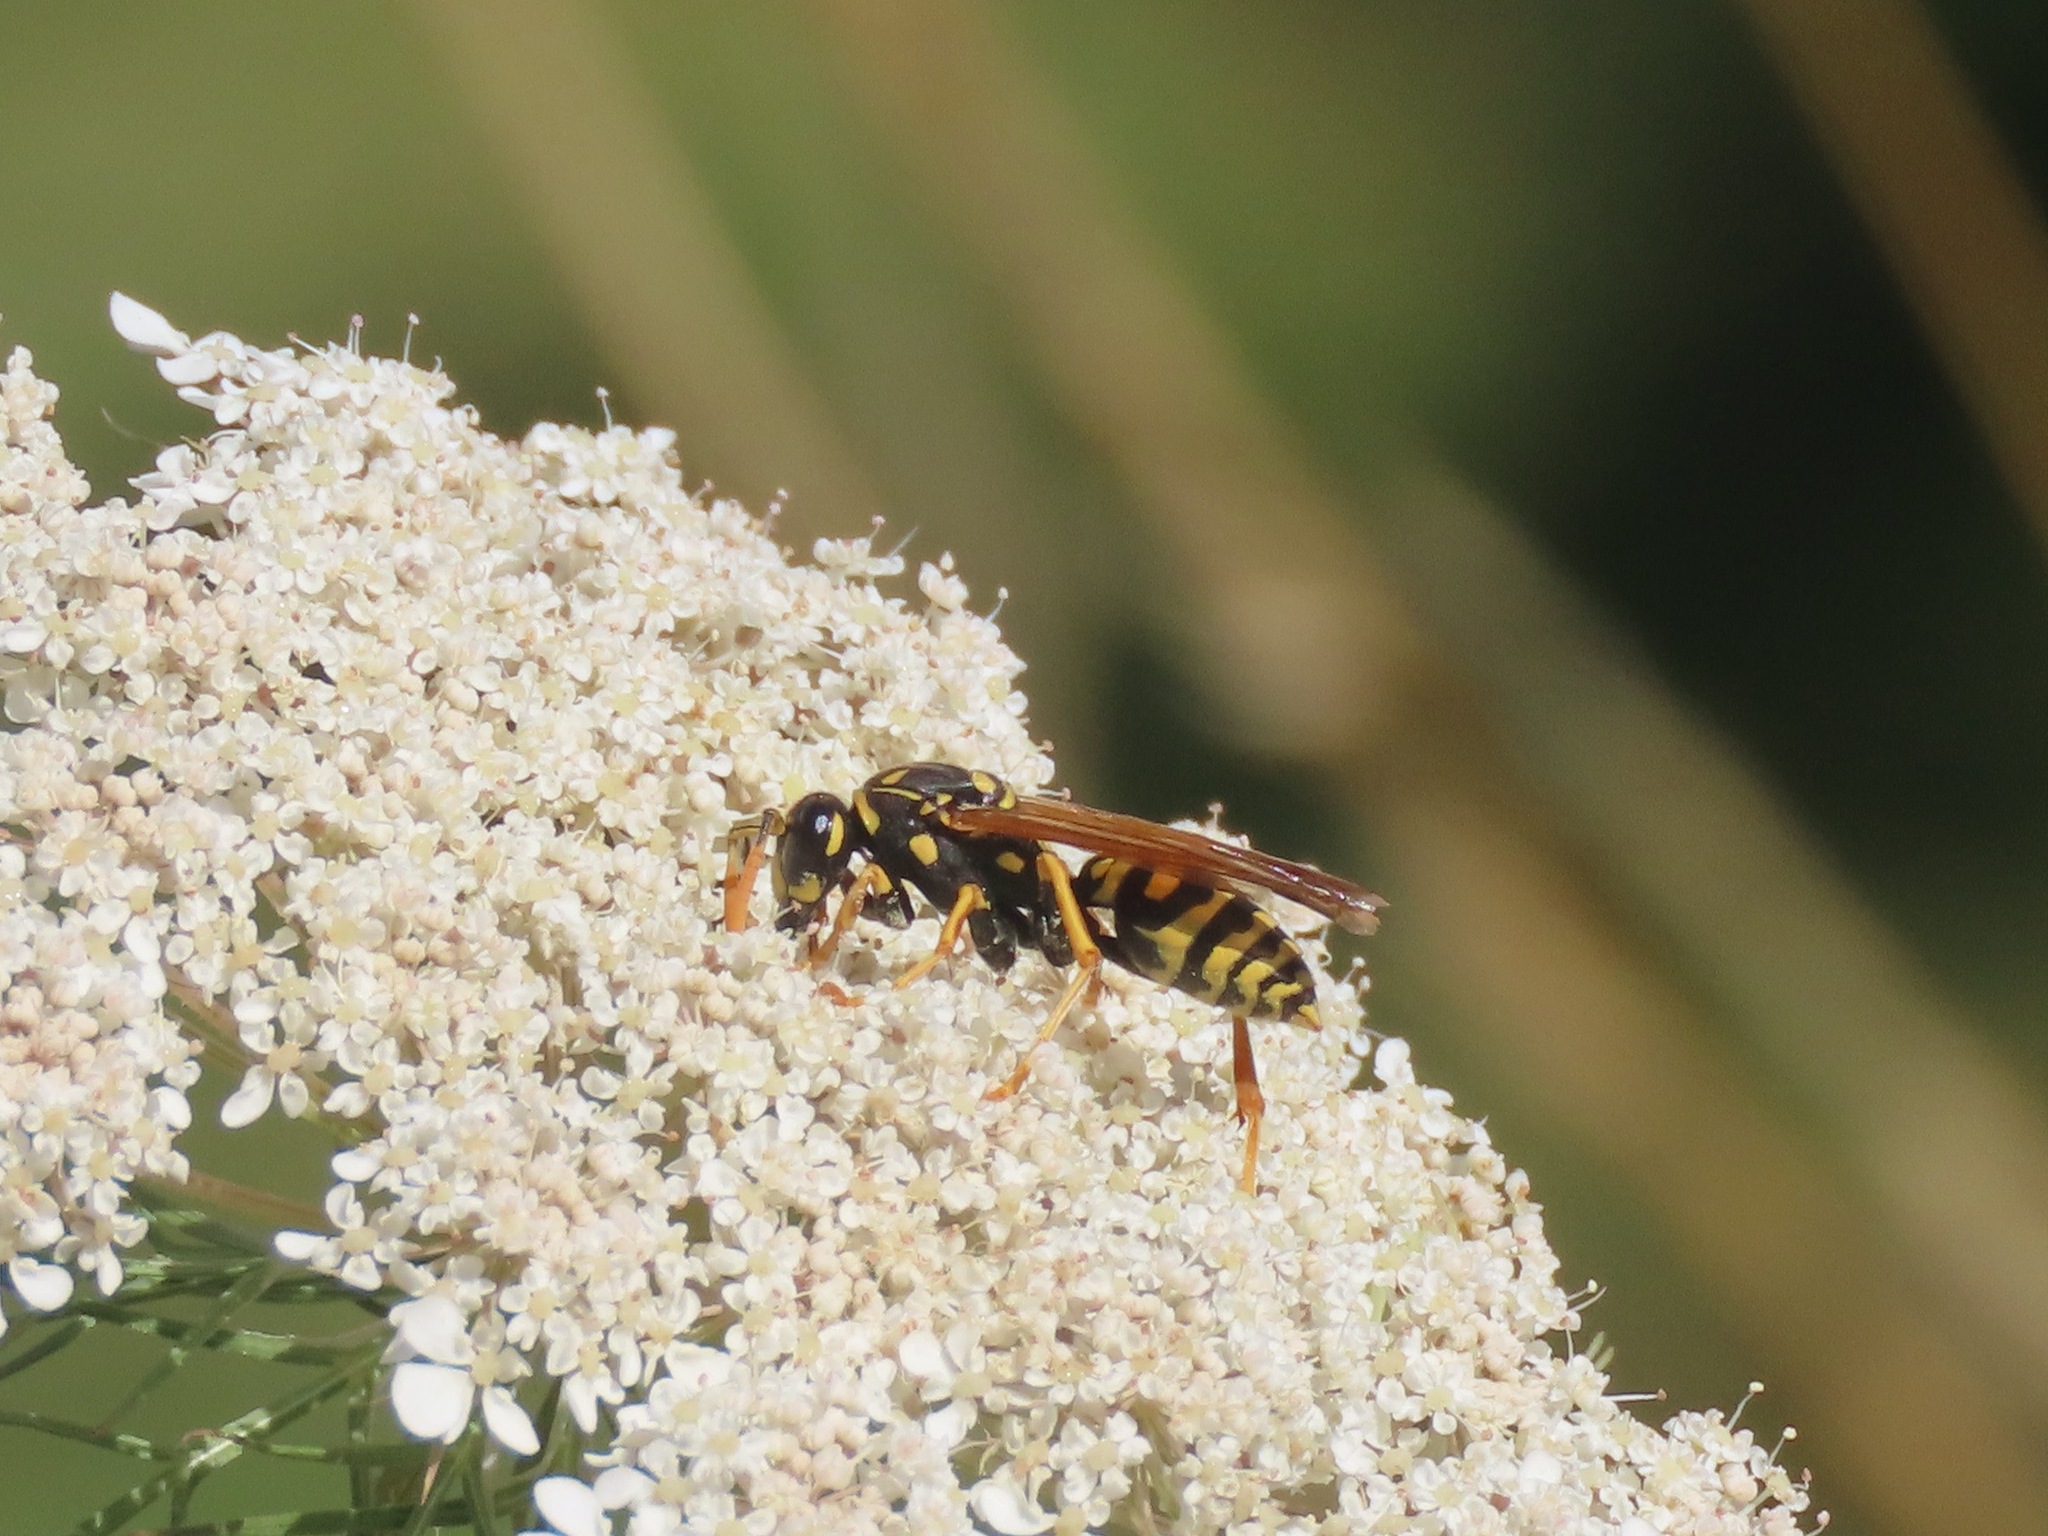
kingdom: Animalia
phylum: Arthropoda
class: Insecta
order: Hymenoptera
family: Eumenidae
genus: Polistes
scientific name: Polistes dominula
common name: Paper wasp
